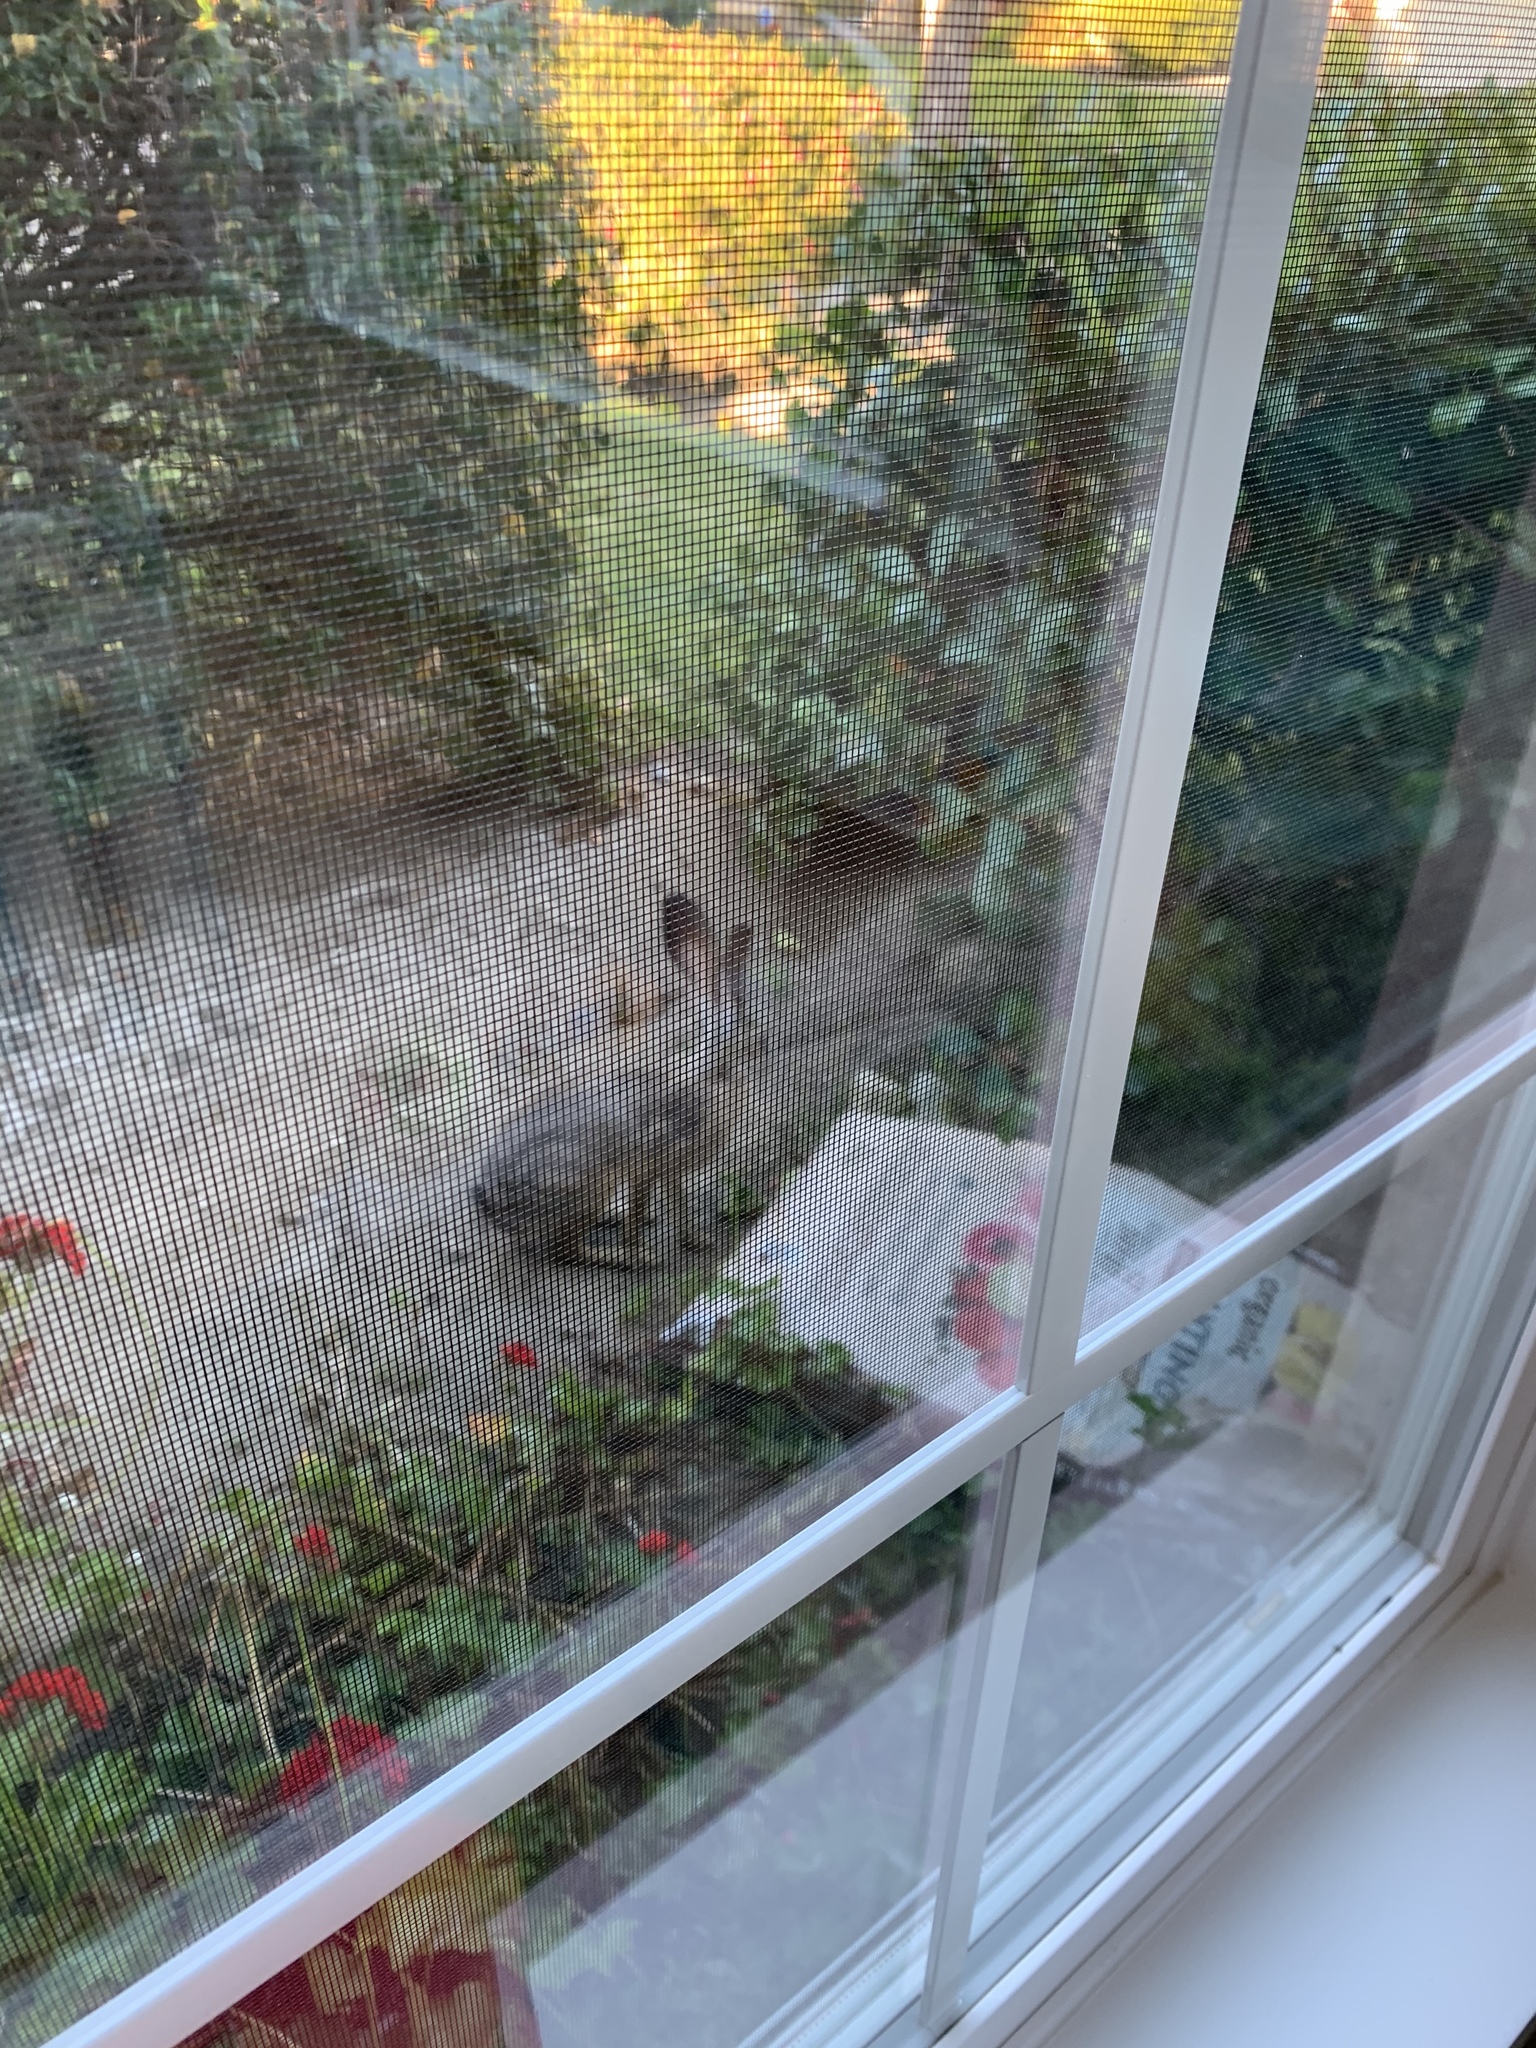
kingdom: Animalia
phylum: Chordata
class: Mammalia
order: Lagomorpha
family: Leporidae
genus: Lepus
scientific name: Lepus californicus
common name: Black-tailed jackrabbit
